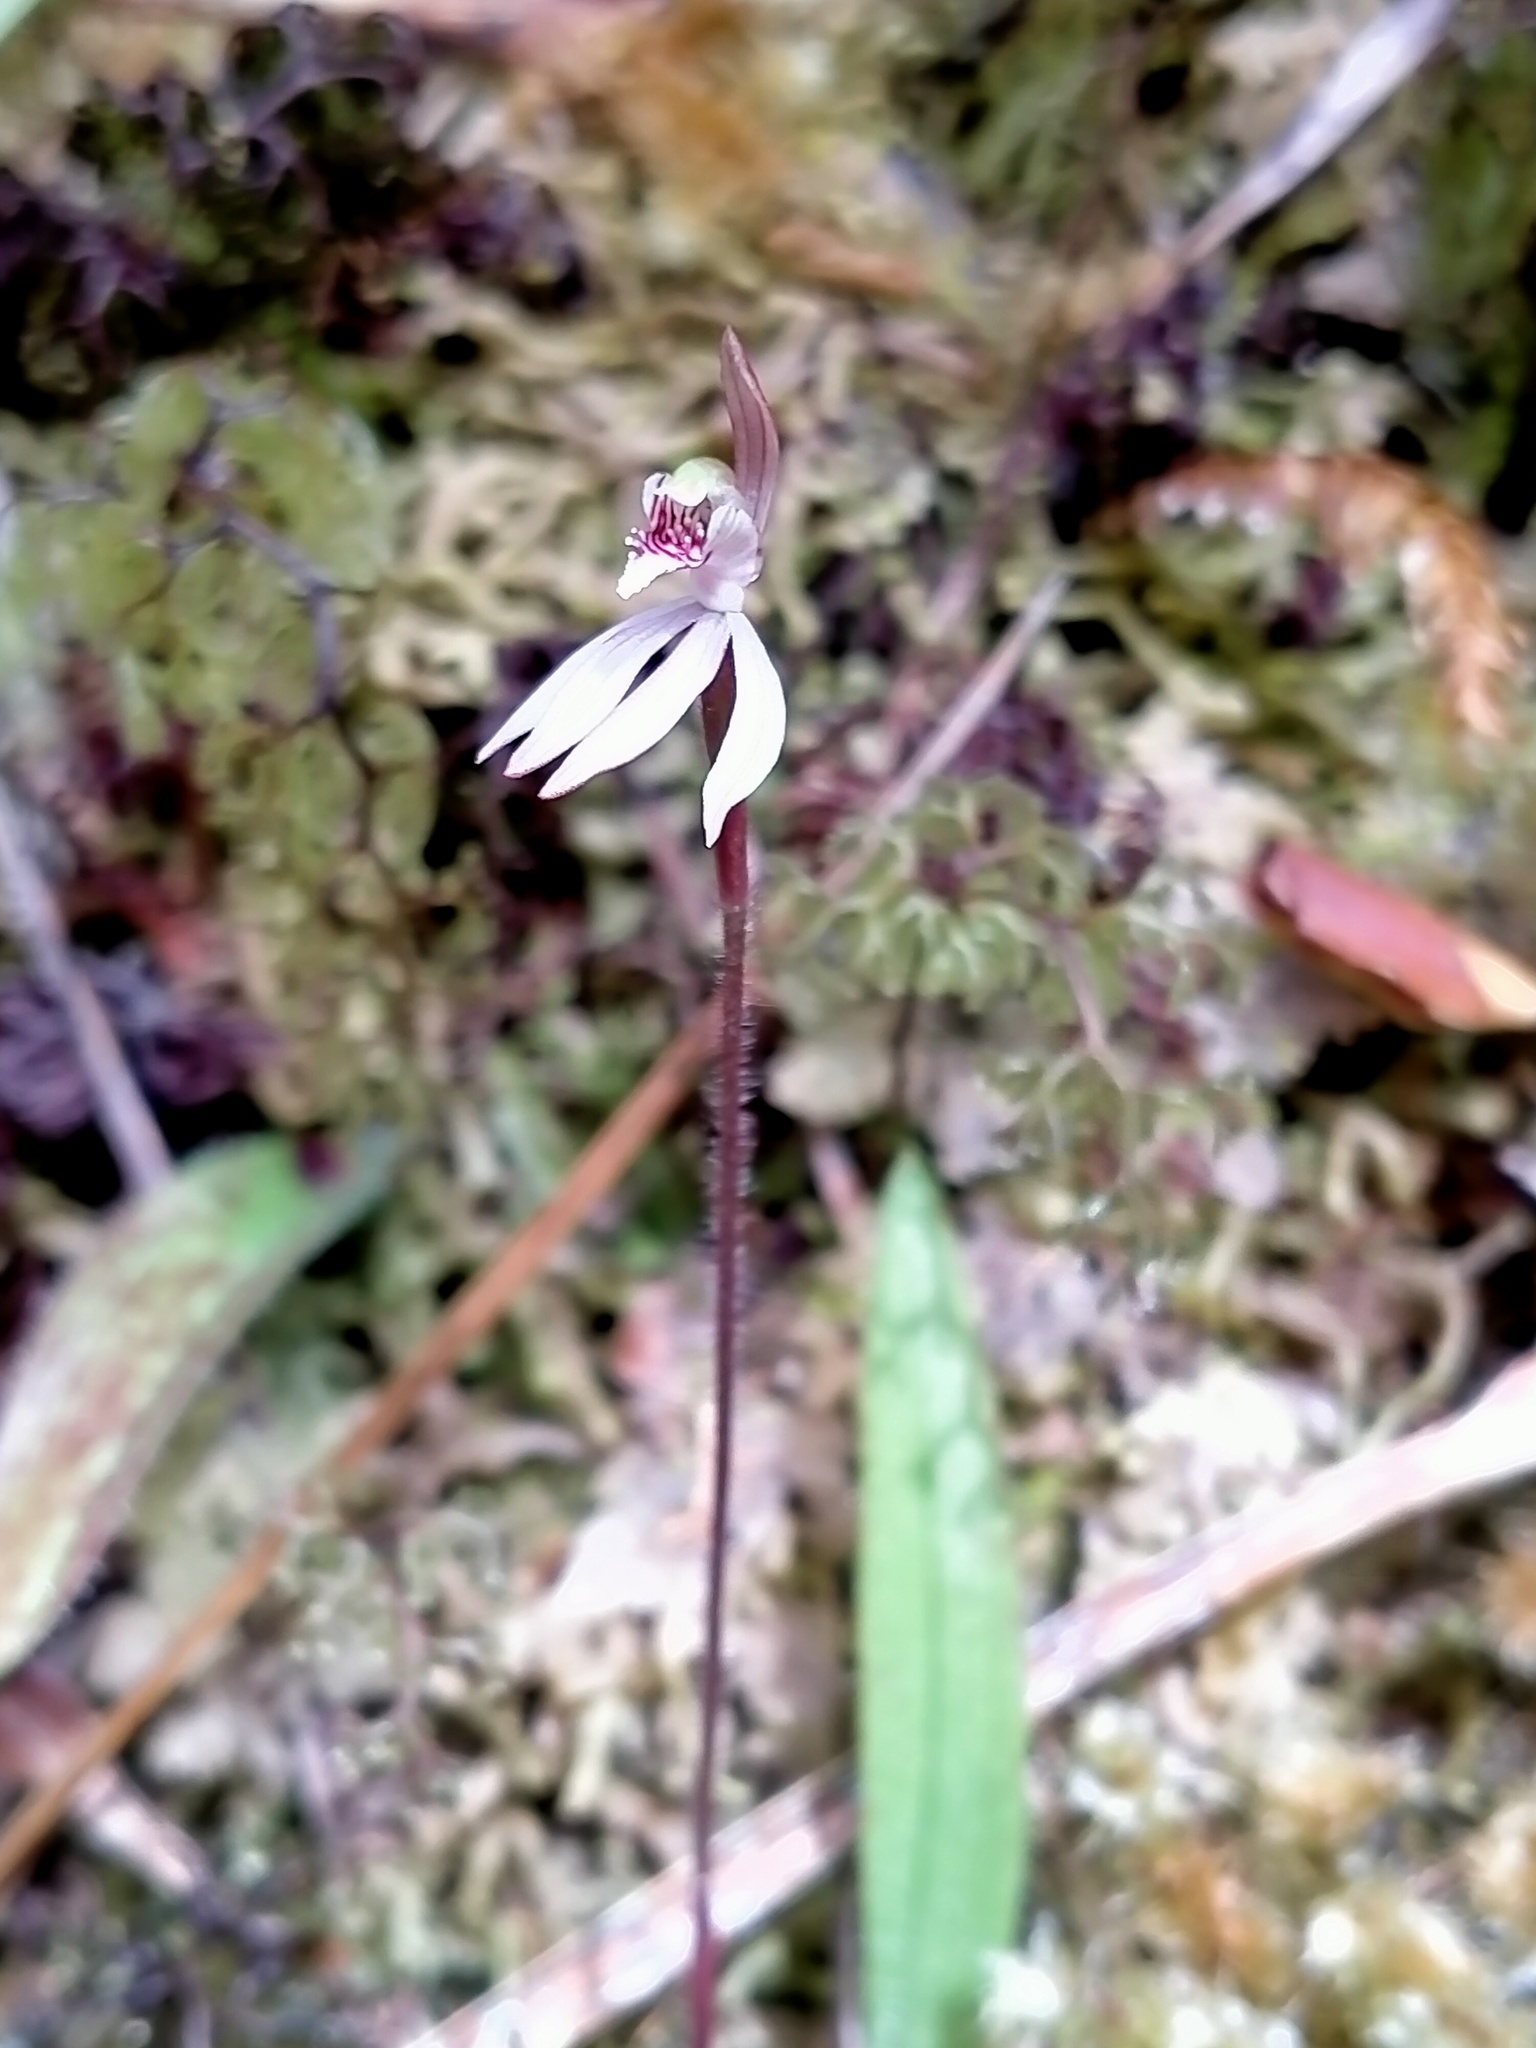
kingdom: Plantae
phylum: Tracheophyta
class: Liliopsida
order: Asparagales
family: Orchidaceae
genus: Caladenia
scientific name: Caladenia chlorostyla
